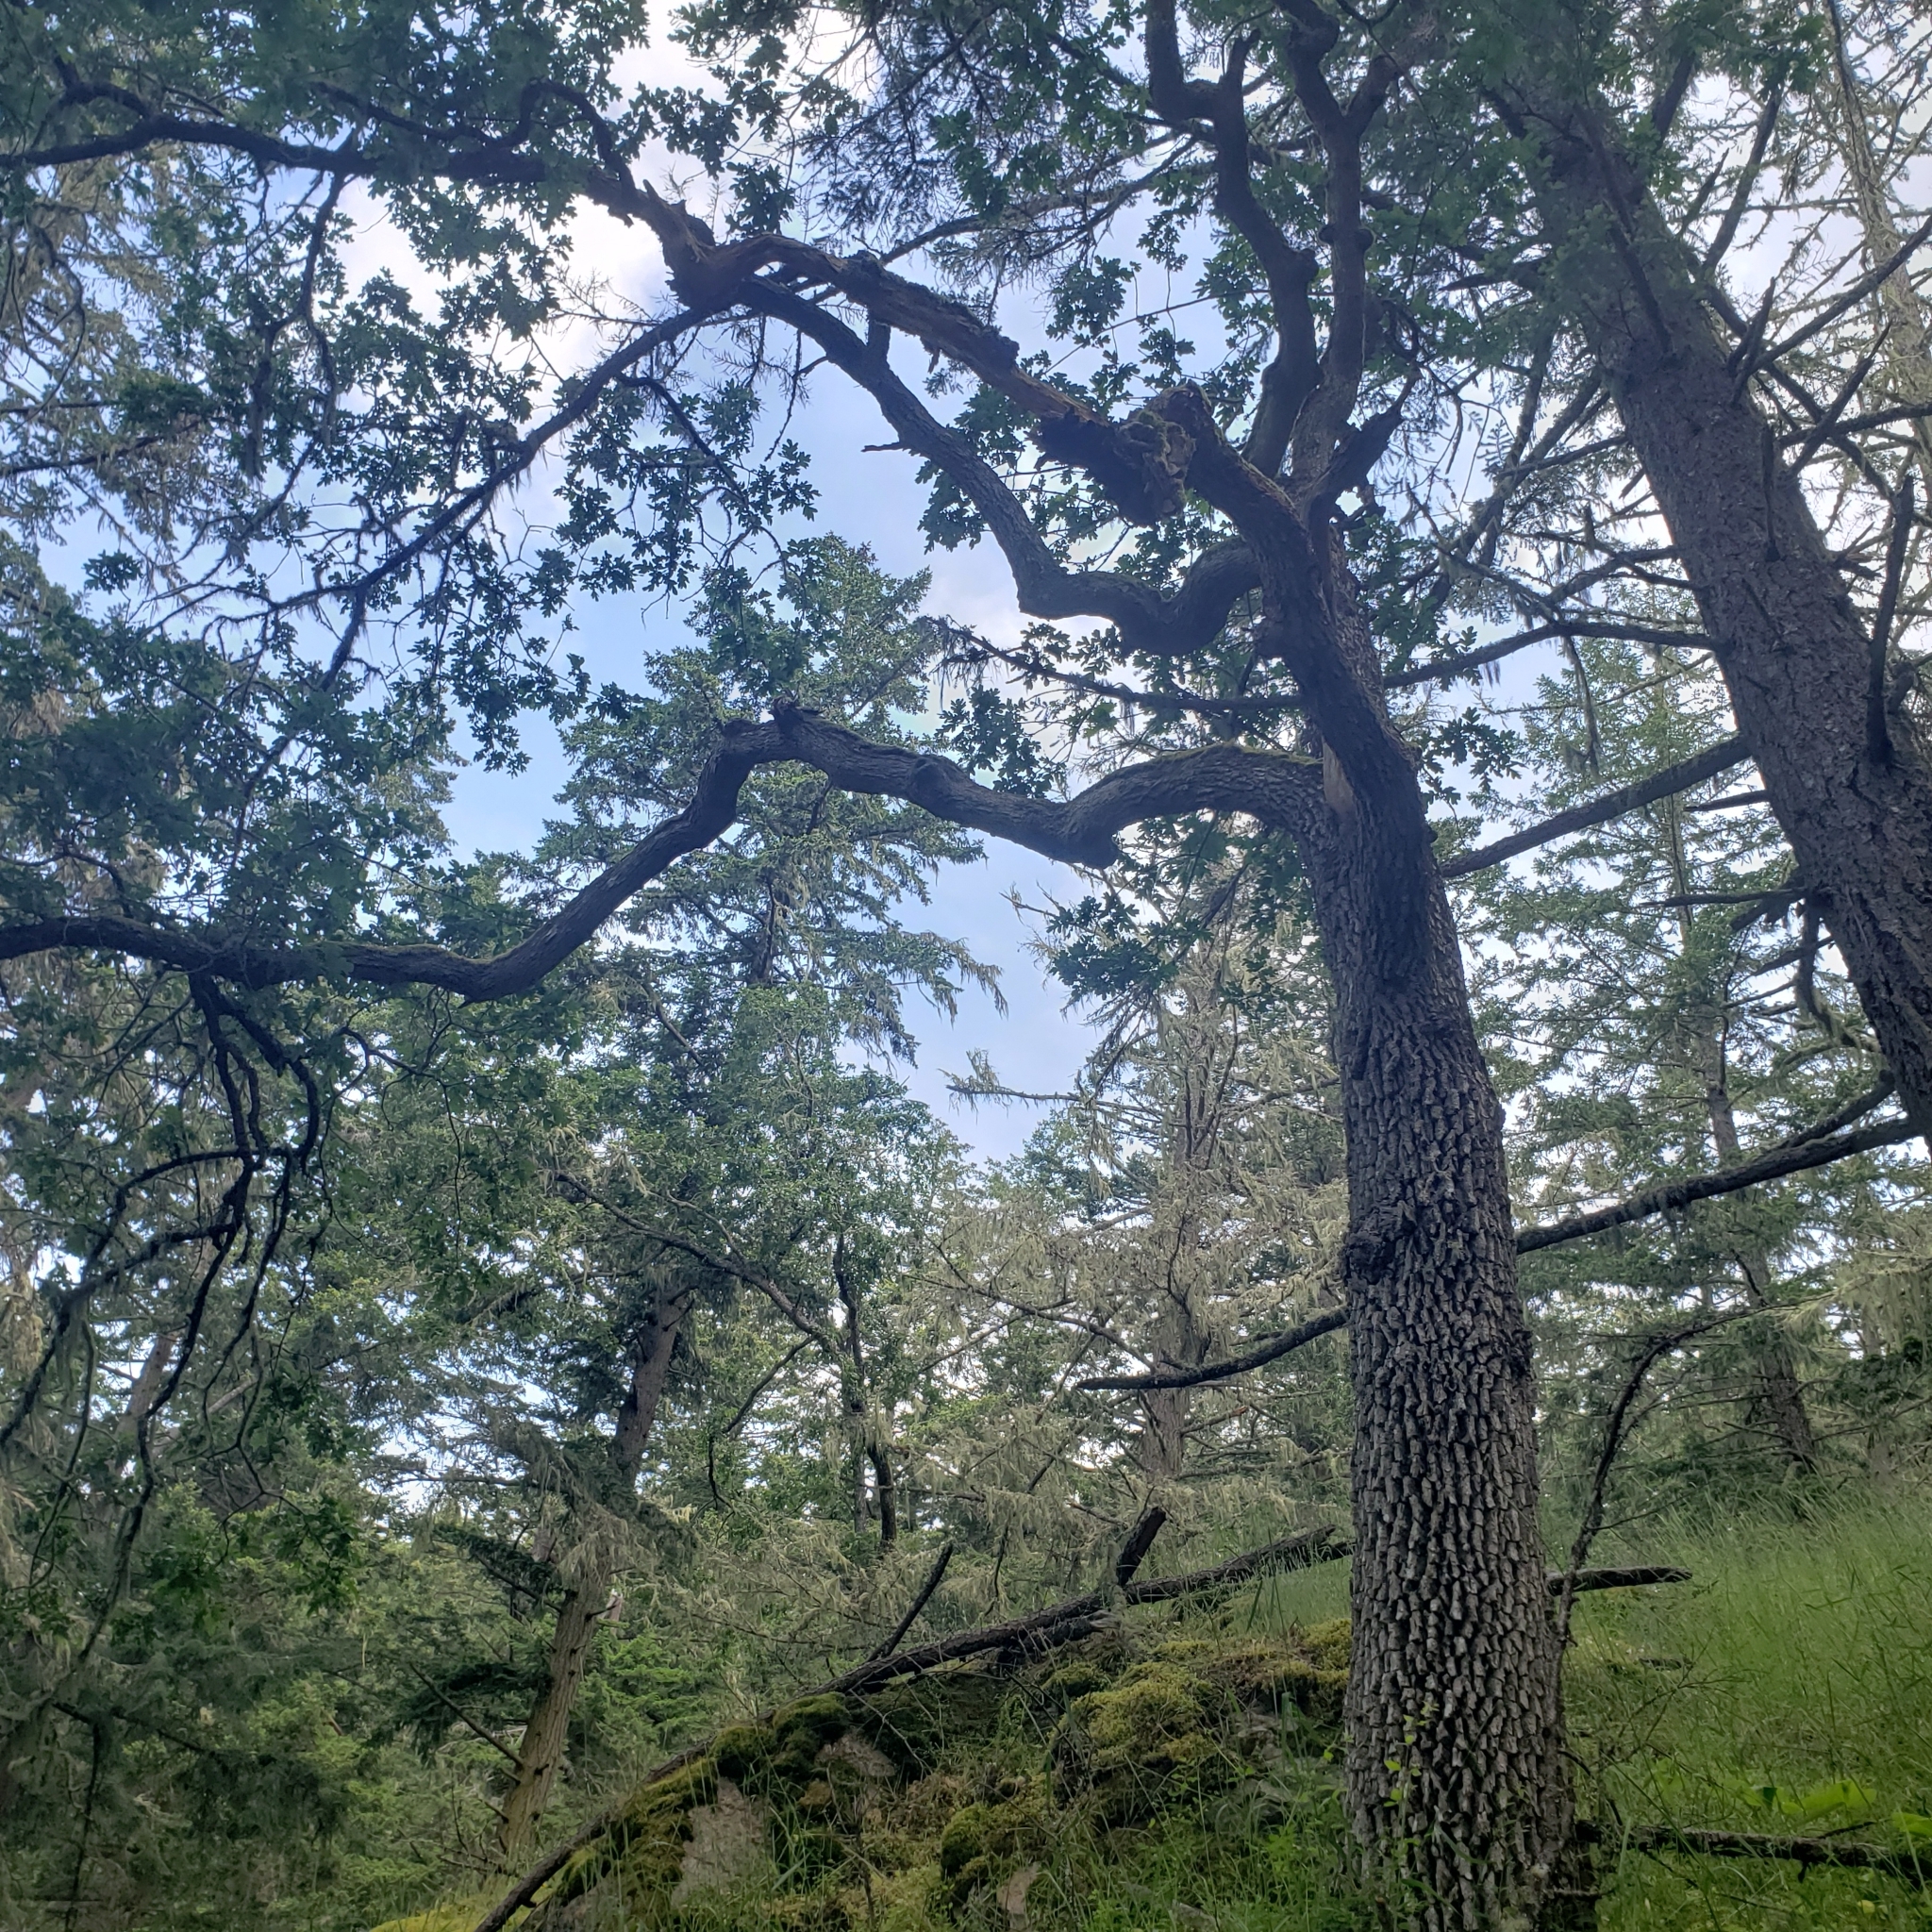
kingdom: Plantae
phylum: Tracheophyta
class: Magnoliopsida
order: Fagales
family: Fagaceae
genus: Quercus
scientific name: Quercus garryana
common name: Garry oak
